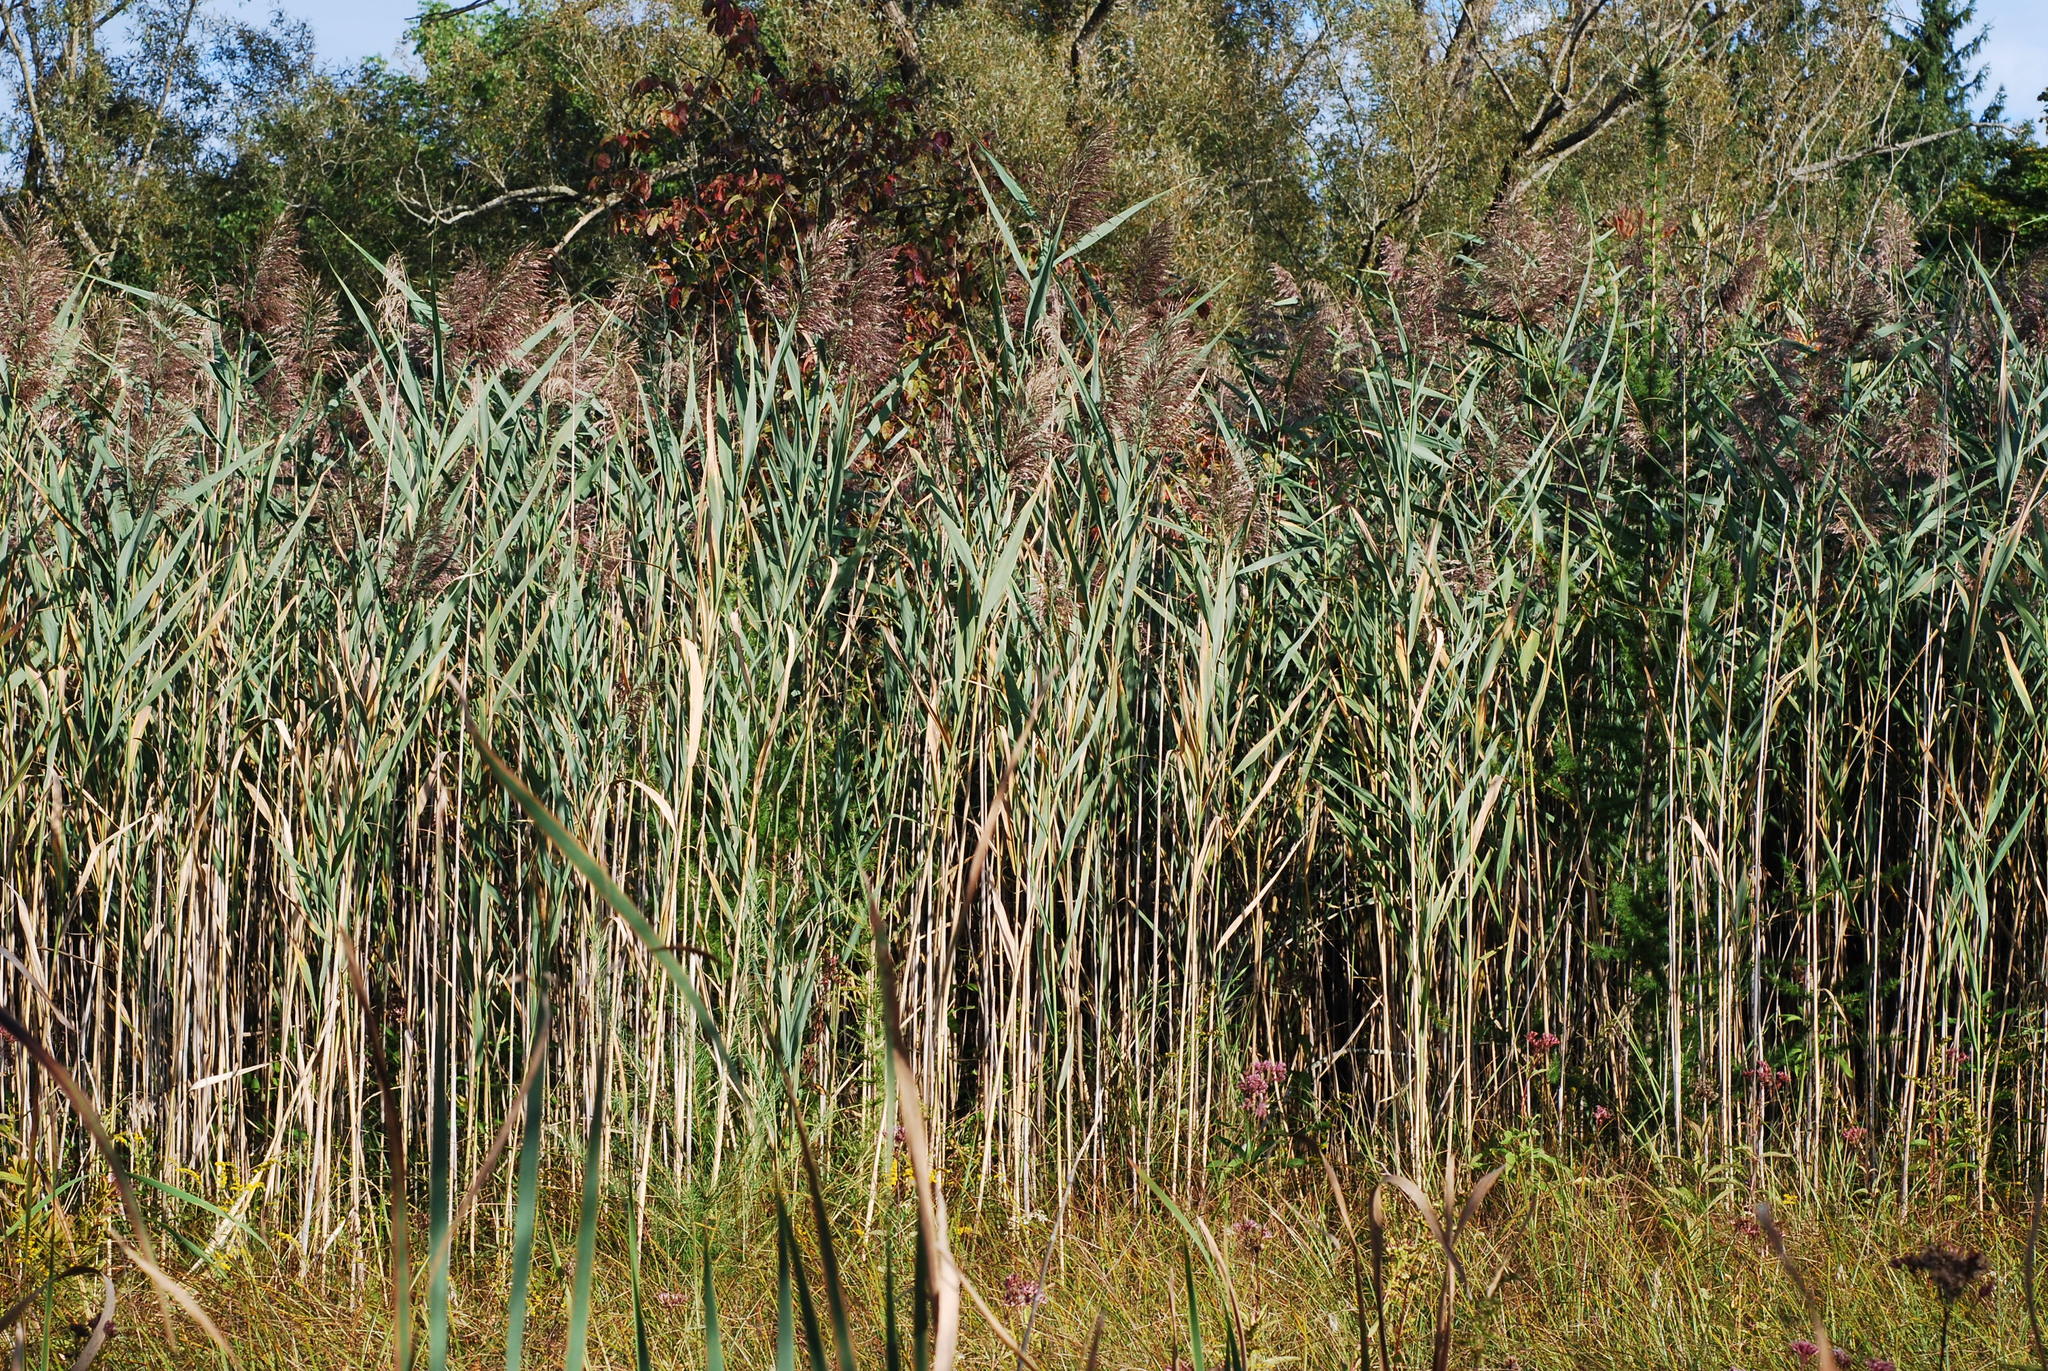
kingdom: Plantae
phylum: Tracheophyta
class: Liliopsida
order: Poales
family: Poaceae
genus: Phragmites
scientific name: Phragmites australis
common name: Common reed
